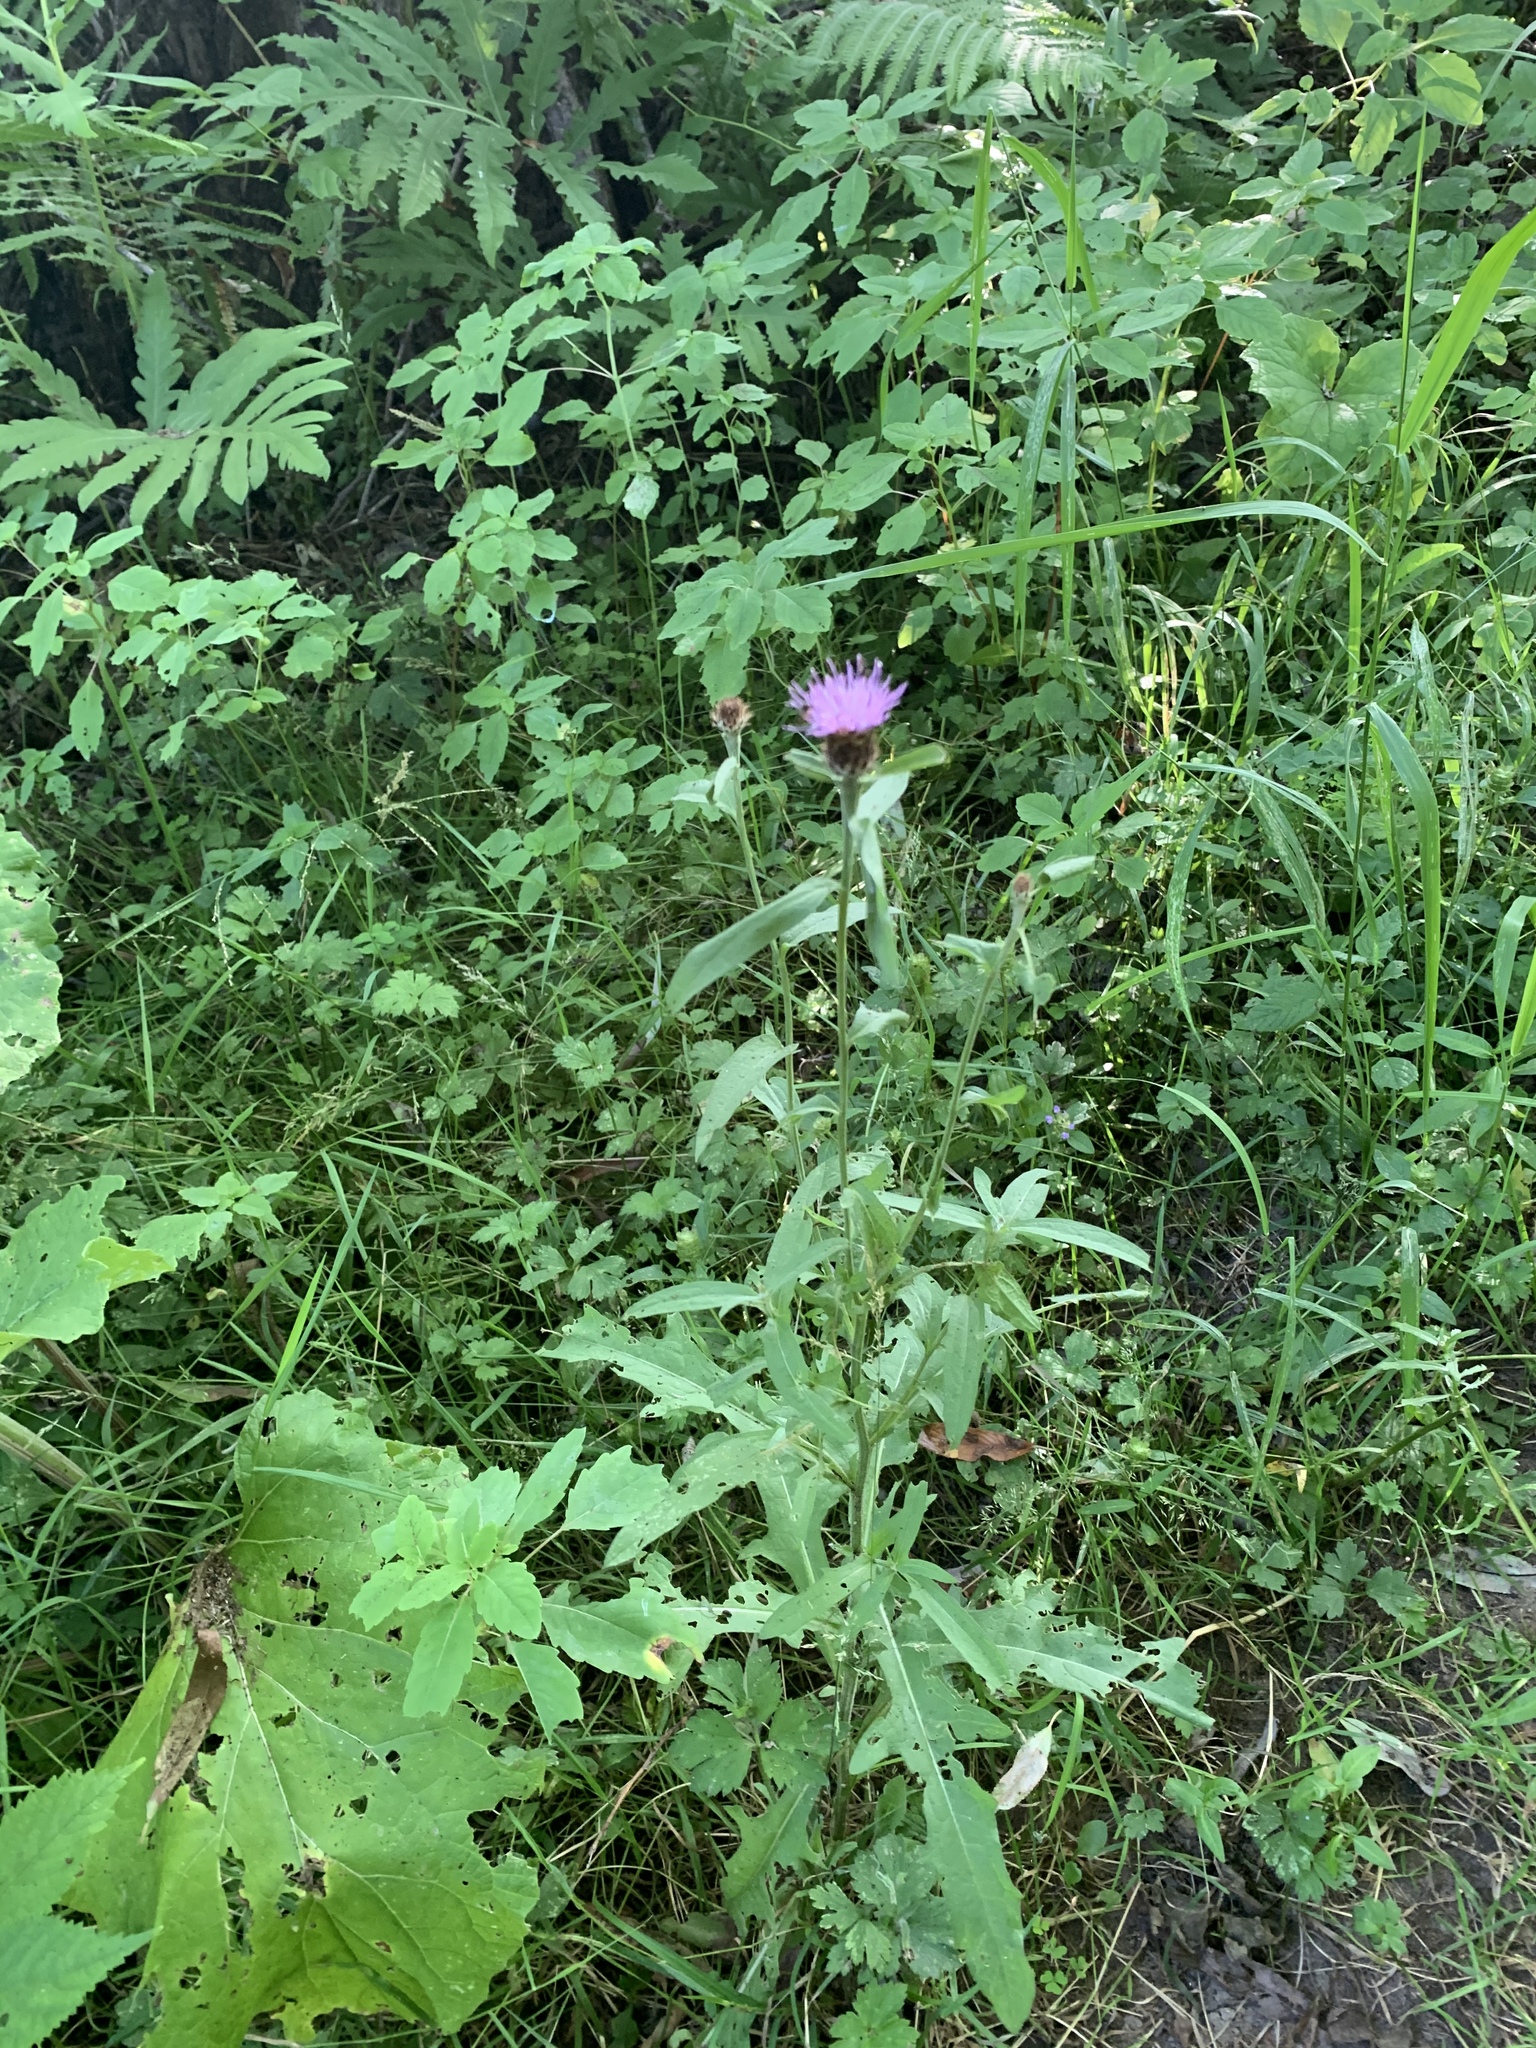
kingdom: Plantae
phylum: Tracheophyta
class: Magnoliopsida
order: Asterales
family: Asteraceae
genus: Centaurea
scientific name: Centaurea nigra
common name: Lesser knapweed
